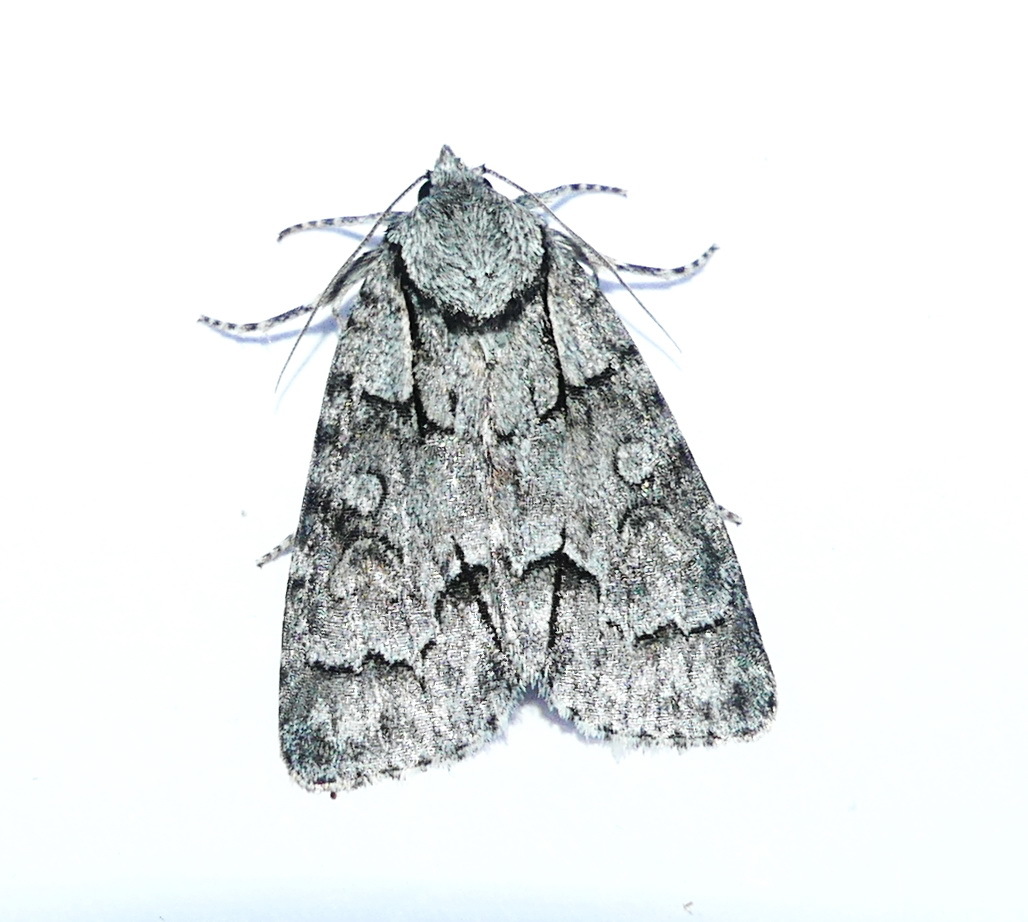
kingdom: Animalia
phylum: Arthropoda
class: Insecta
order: Lepidoptera
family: Noctuidae
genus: Acronicta
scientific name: Acronicta grisea
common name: Gray dagger
